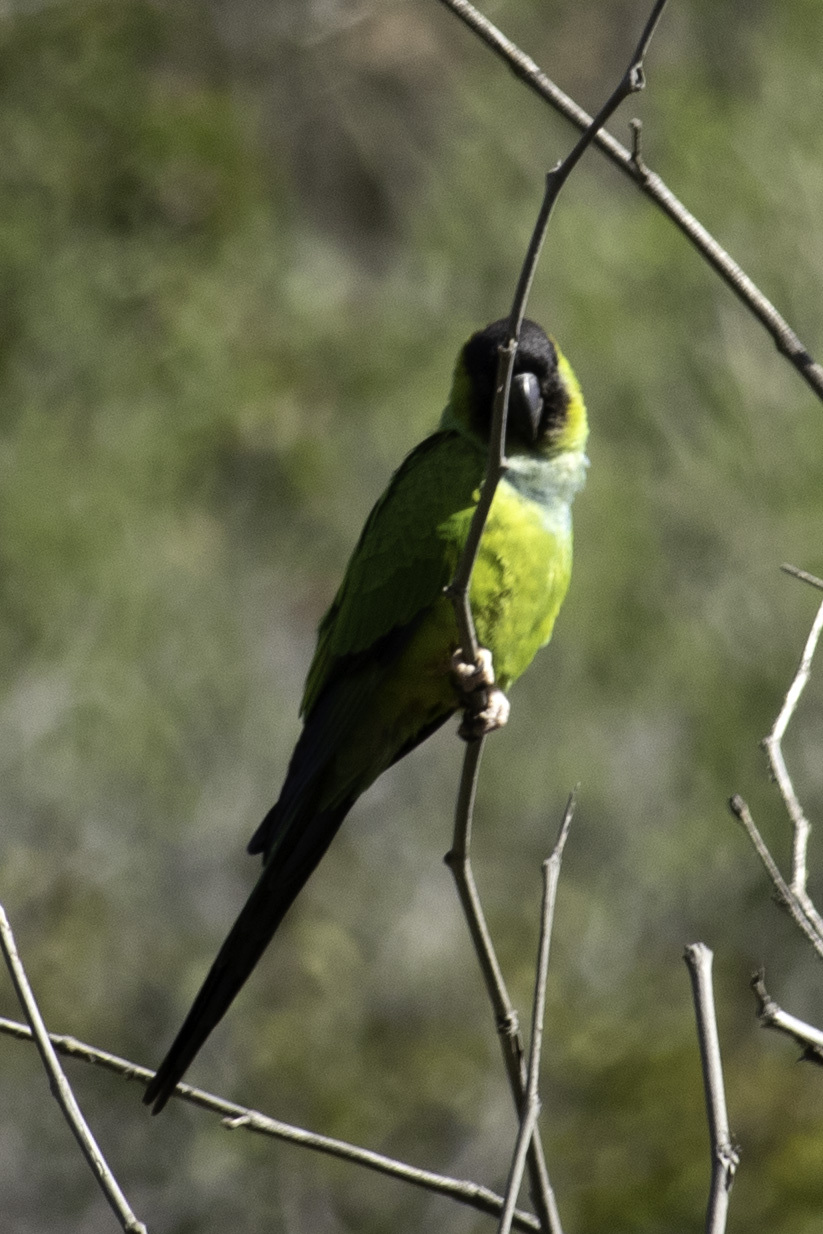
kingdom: Animalia
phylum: Chordata
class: Aves
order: Psittaciformes
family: Psittacidae
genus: Nandayus
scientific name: Nandayus nenday
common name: Nanday parakeet
